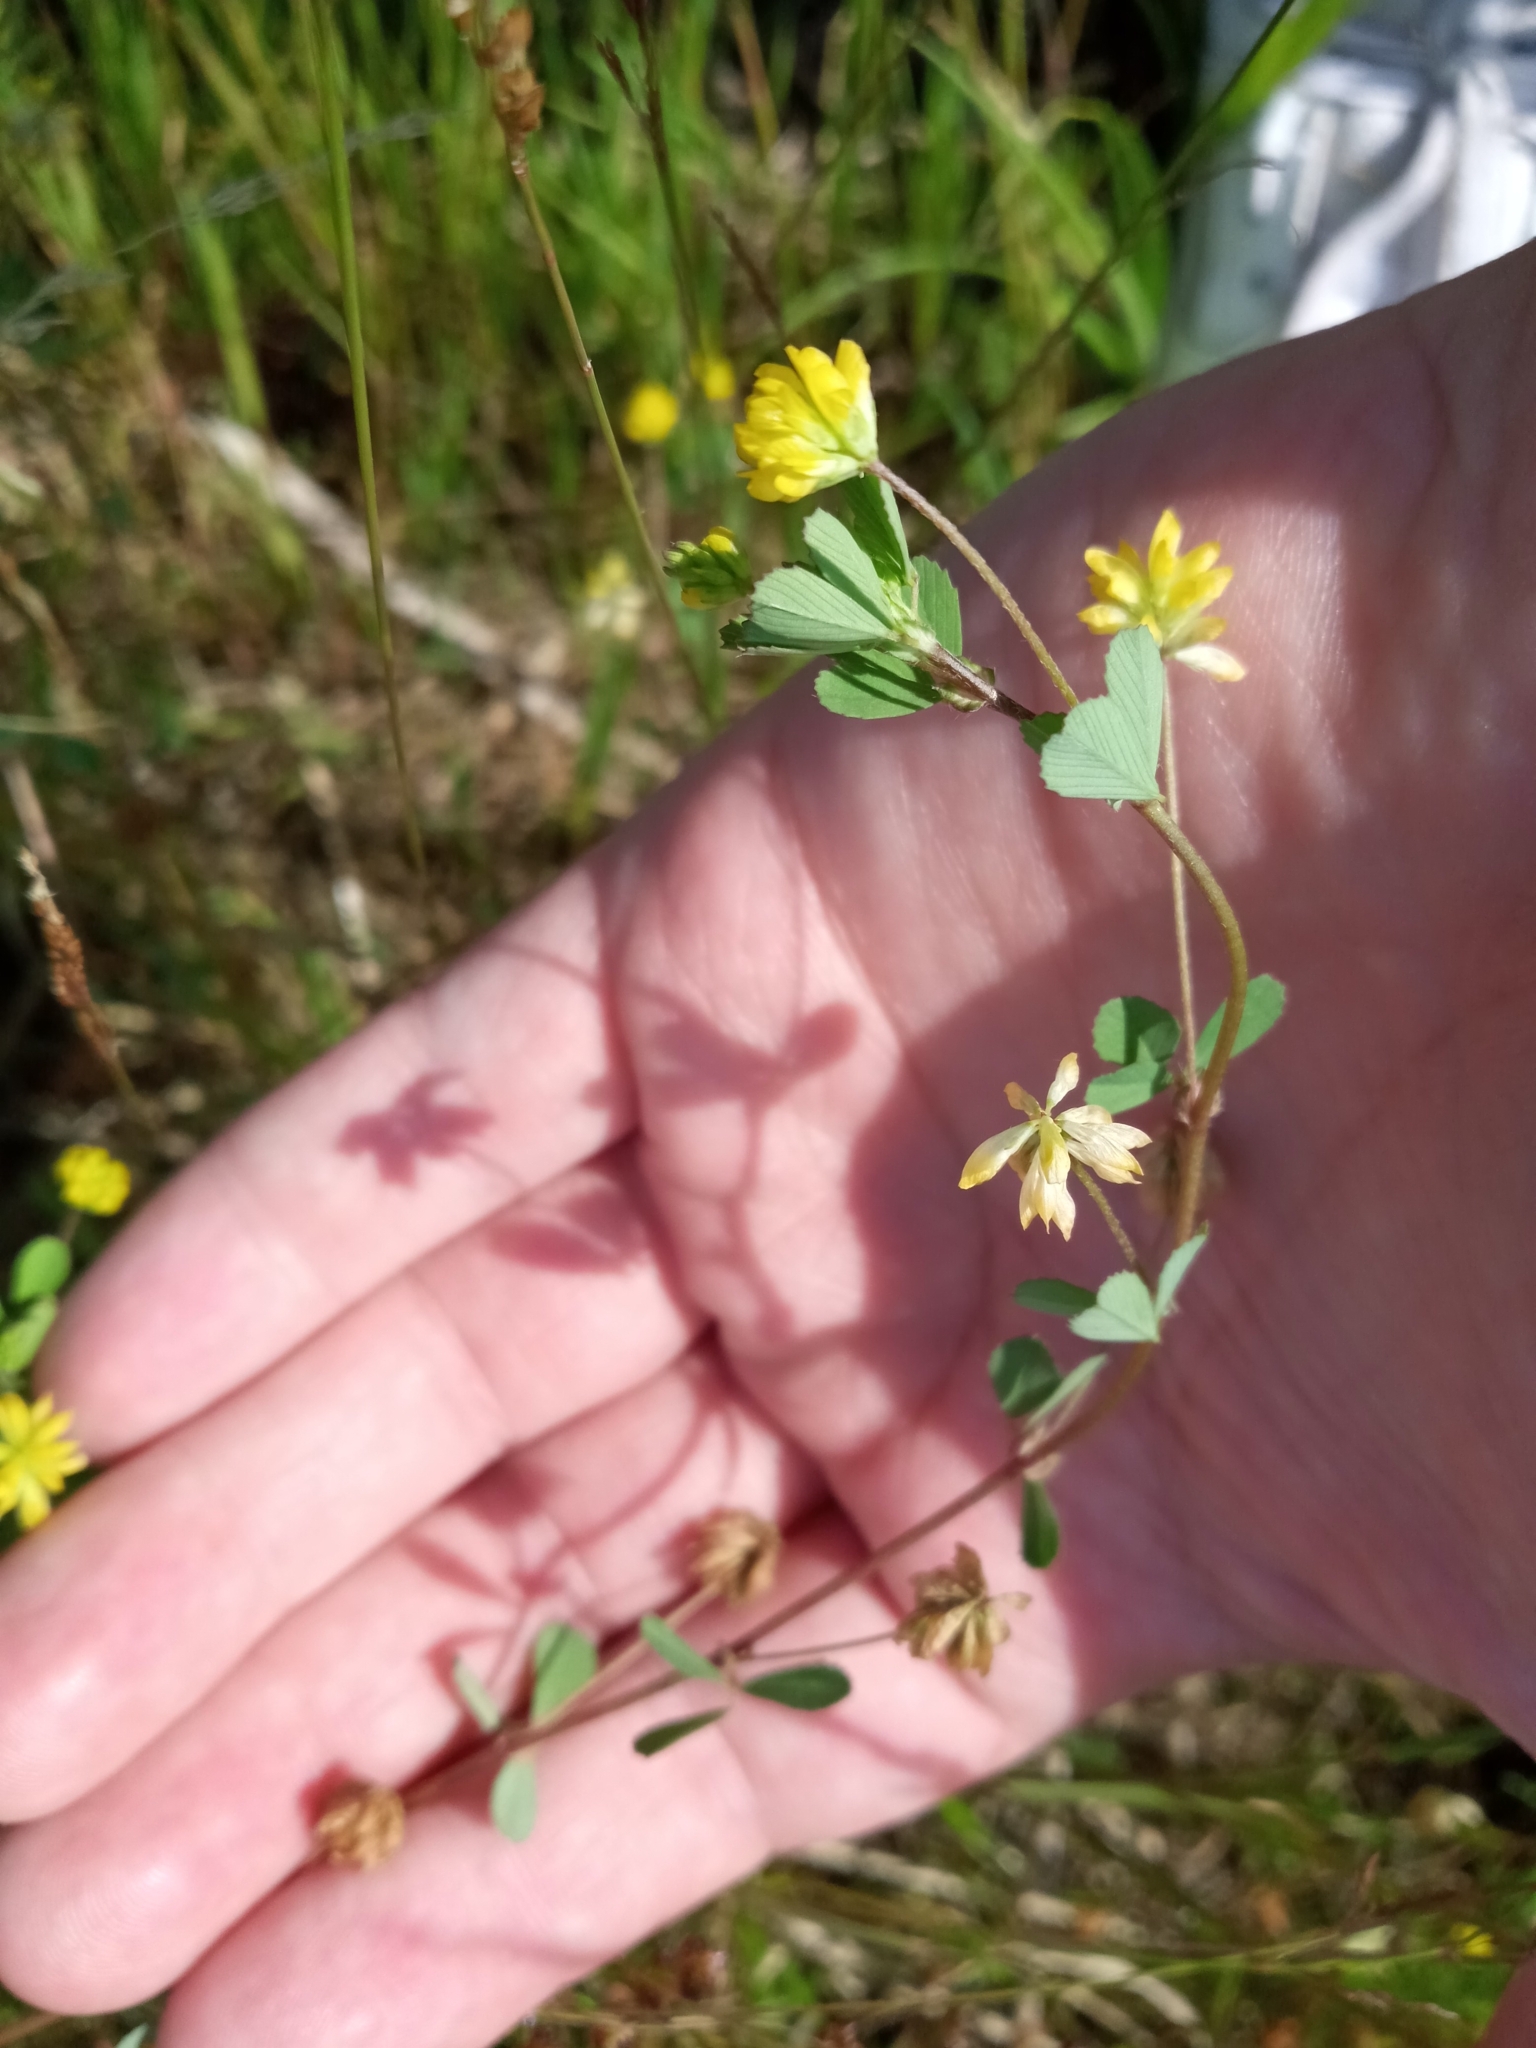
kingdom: Plantae
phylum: Tracheophyta
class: Magnoliopsida
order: Fabales
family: Fabaceae
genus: Trifolium
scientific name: Trifolium dubium
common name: Suckling clover
